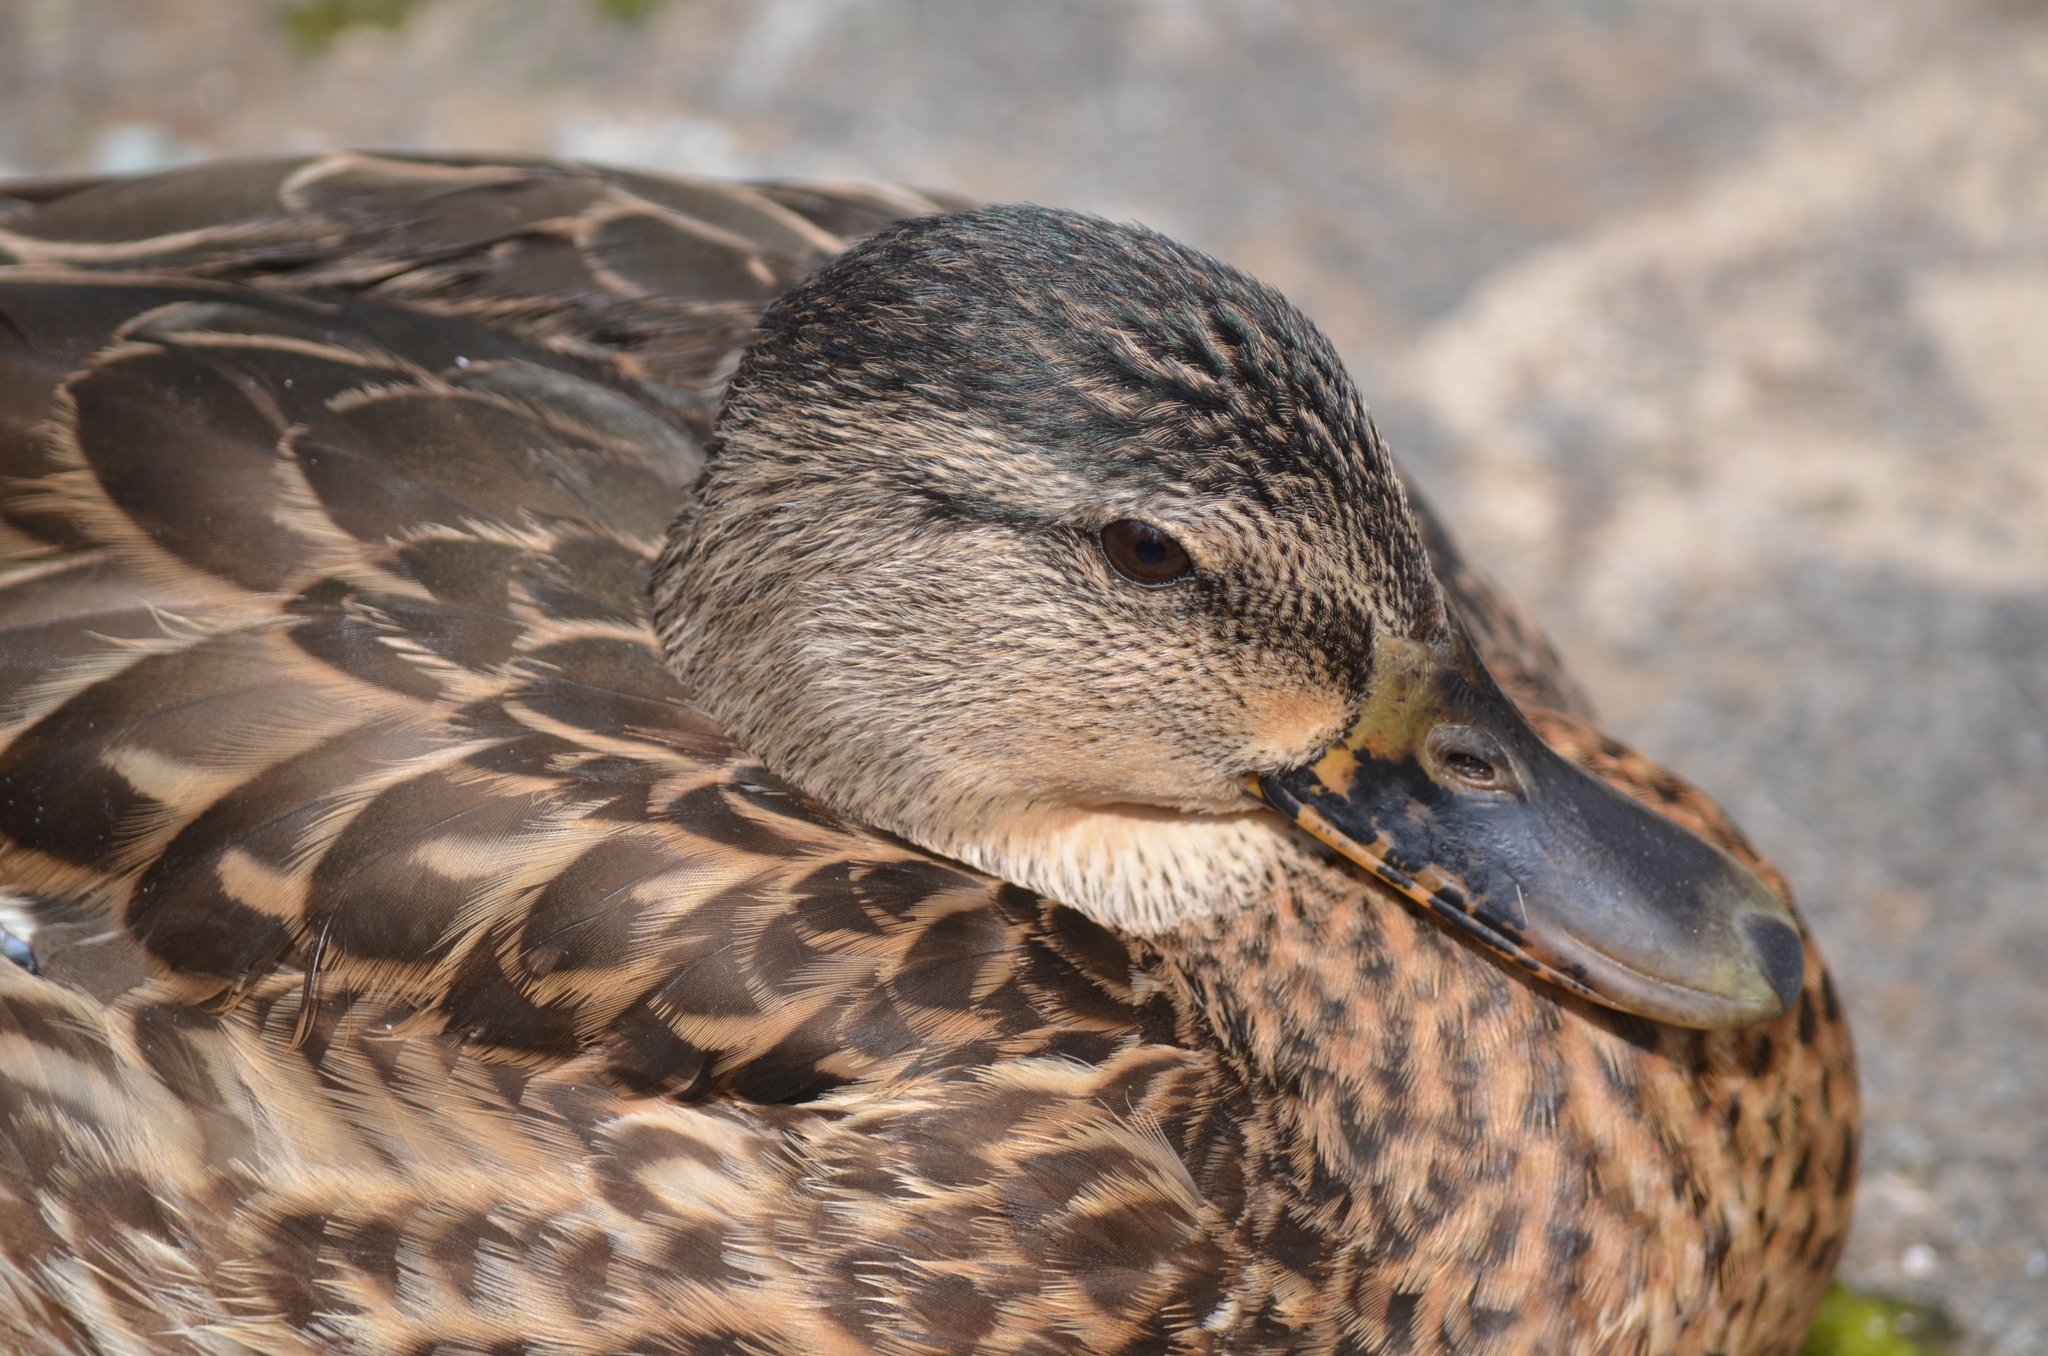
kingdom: Animalia
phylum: Chordata
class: Aves
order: Anseriformes
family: Anatidae
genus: Anas
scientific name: Anas platyrhynchos
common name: Mallard
